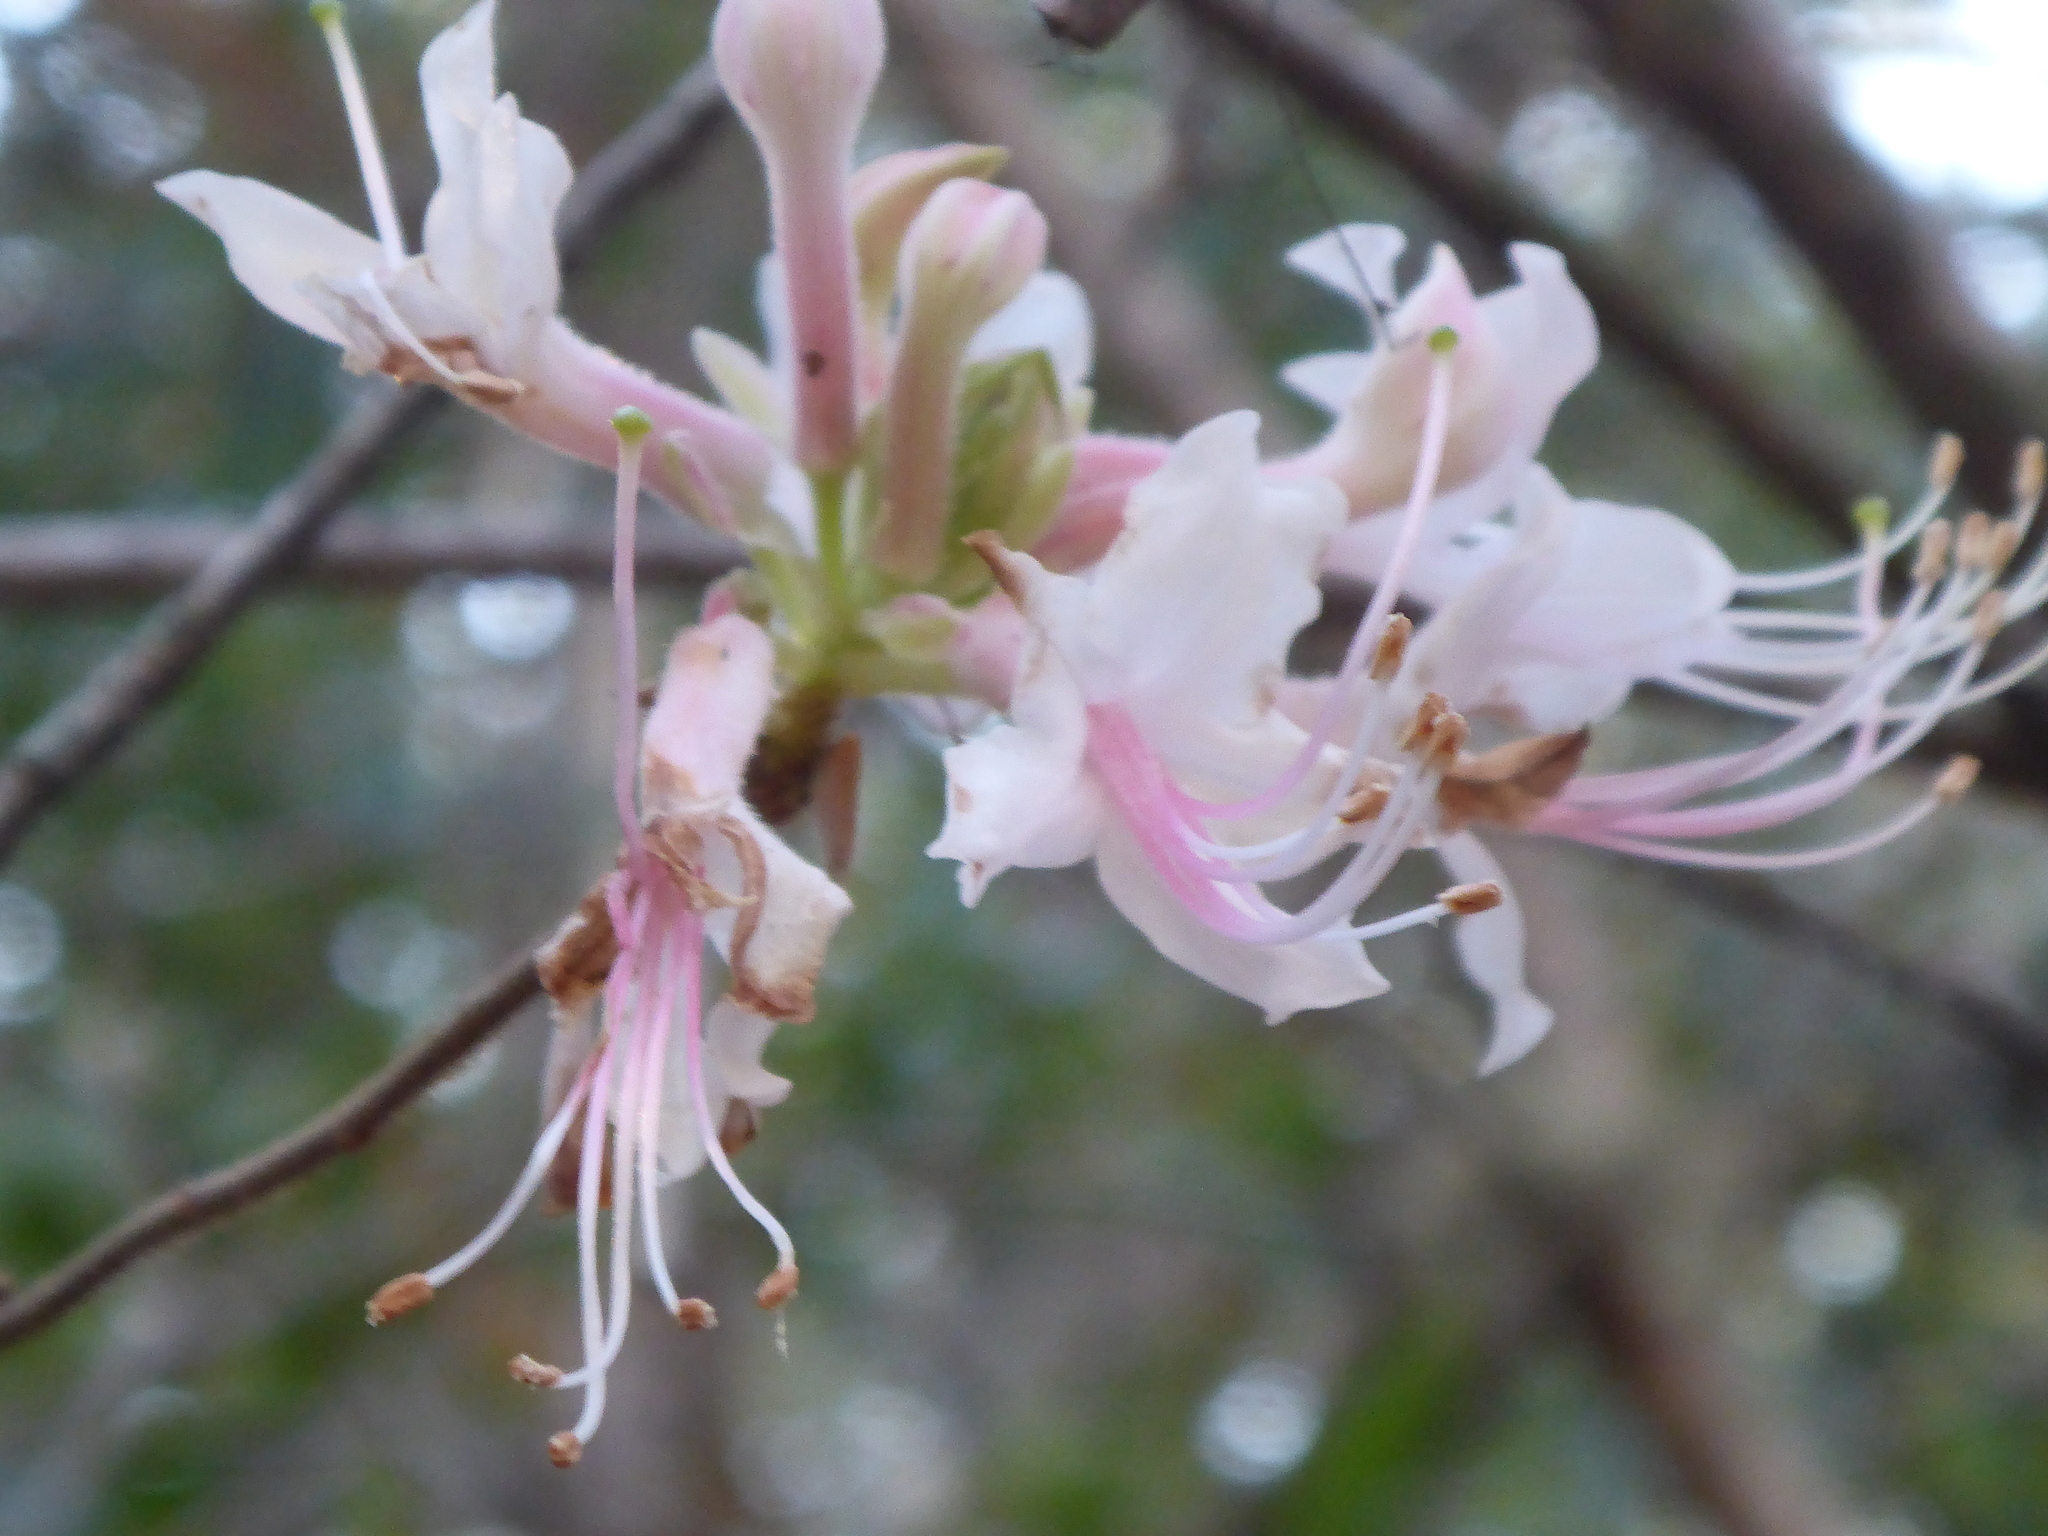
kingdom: Plantae
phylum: Tracheophyta
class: Magnoliopsida
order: Ericales
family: Ericaceae
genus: Rhododendron
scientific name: Rhododendron canescens
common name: Mountain azalea
